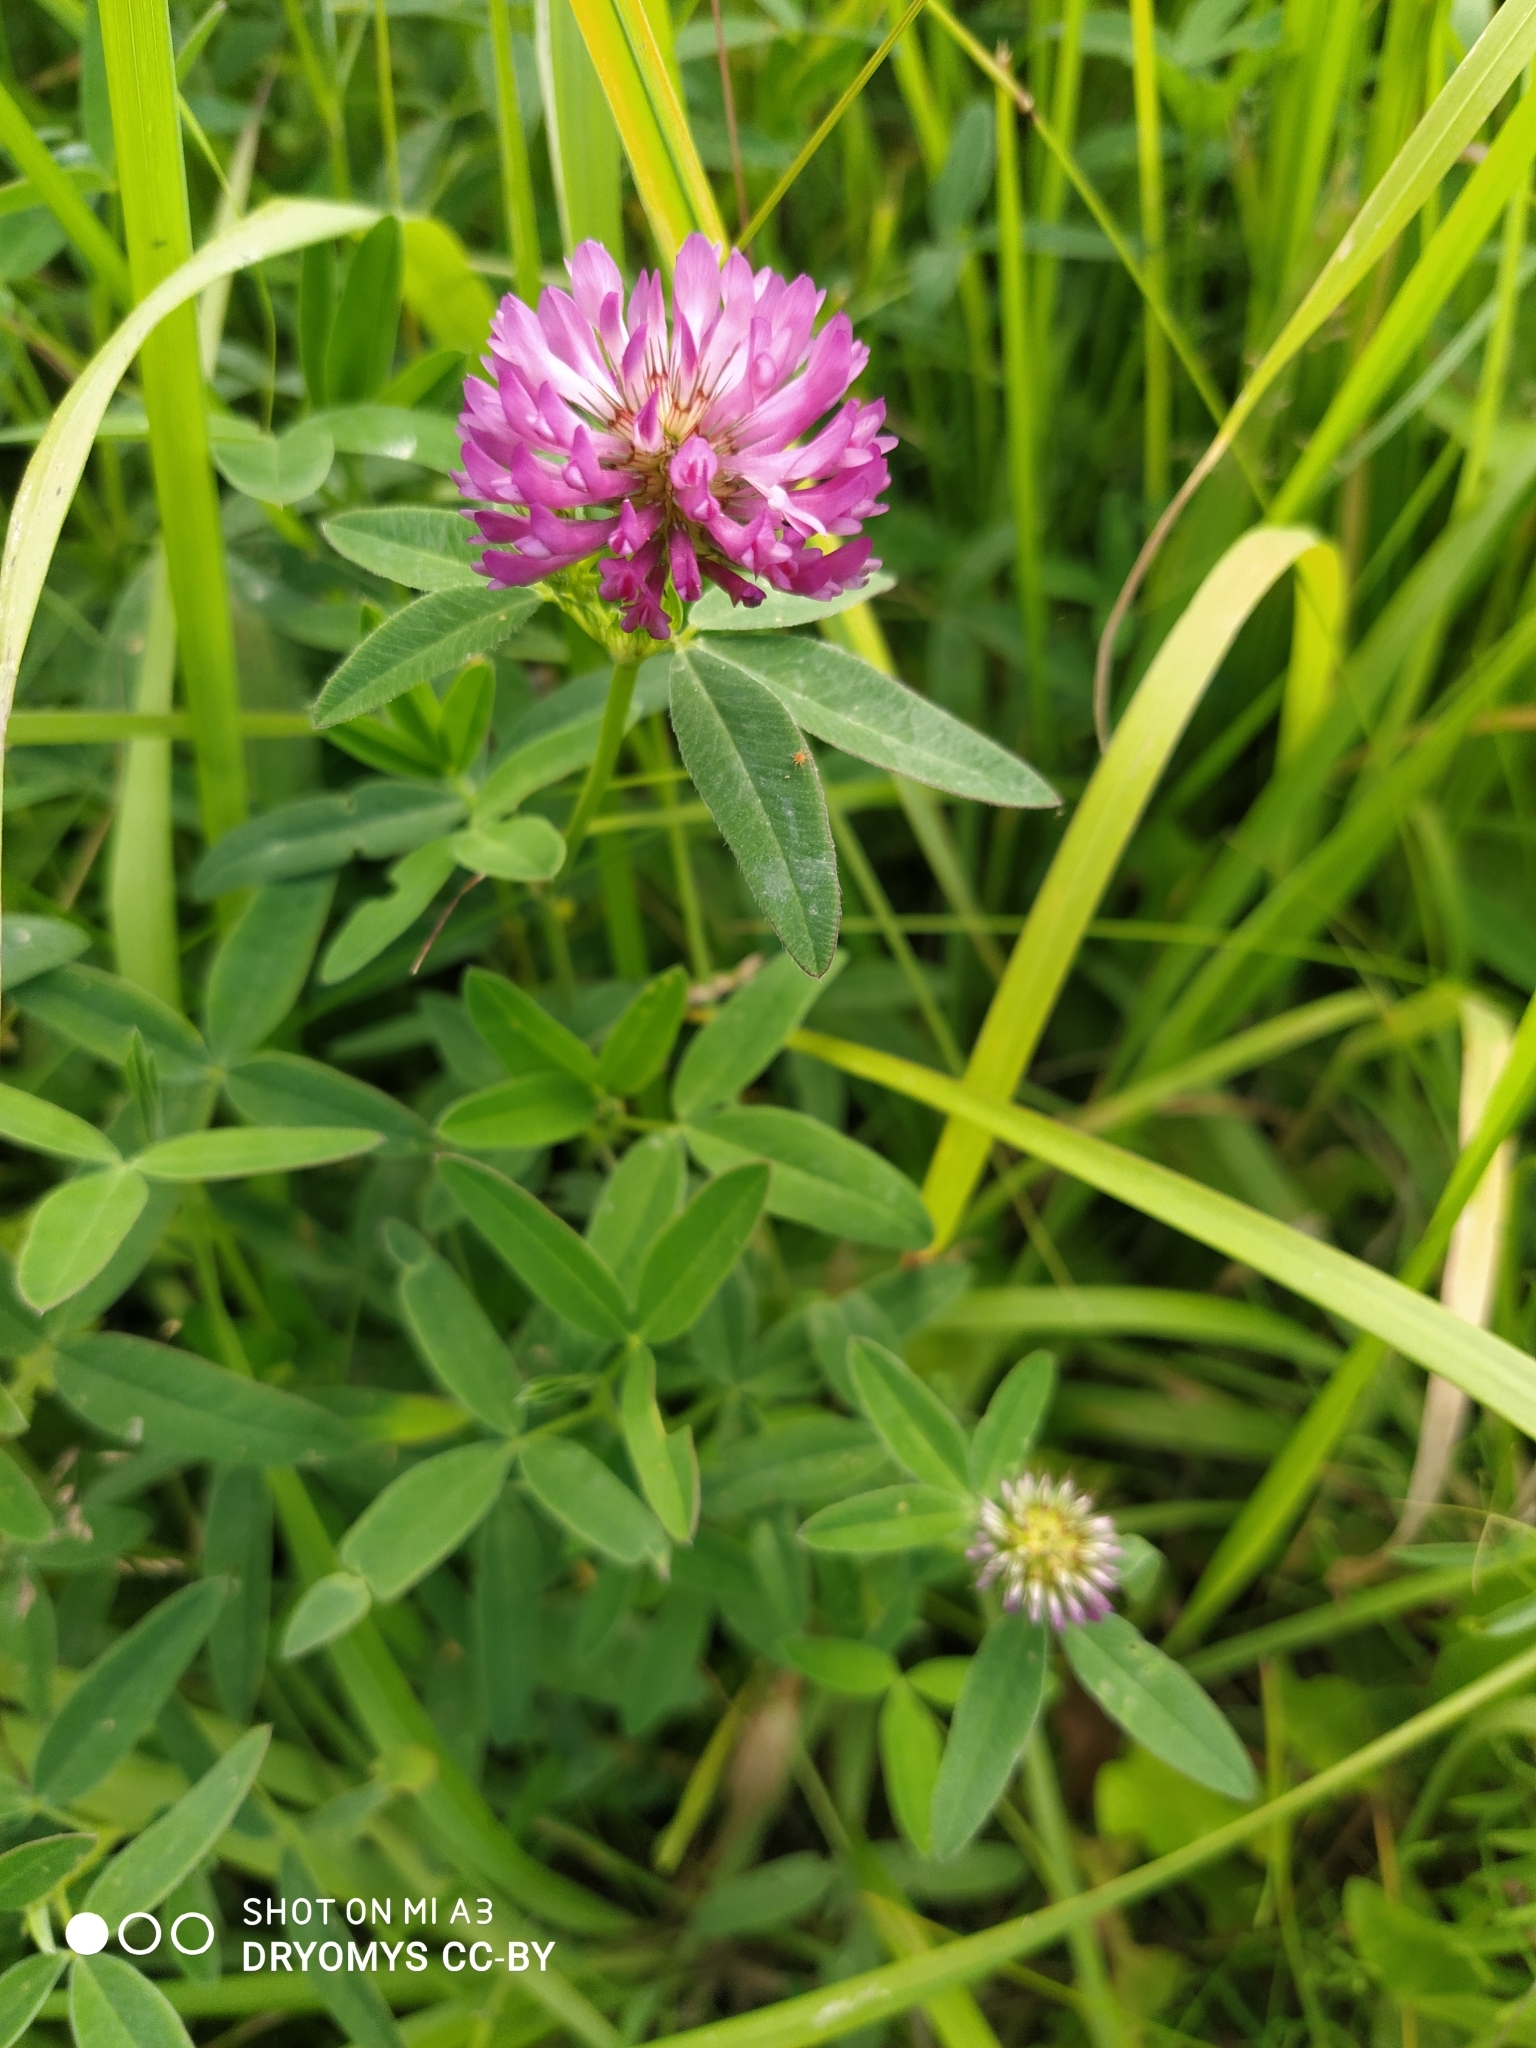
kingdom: Plantae
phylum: Tracheophyta
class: Magnoliopsida
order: Fabales
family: Fabaceae
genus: Trifolium
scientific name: Trifolium medium
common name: Zigzag clover
